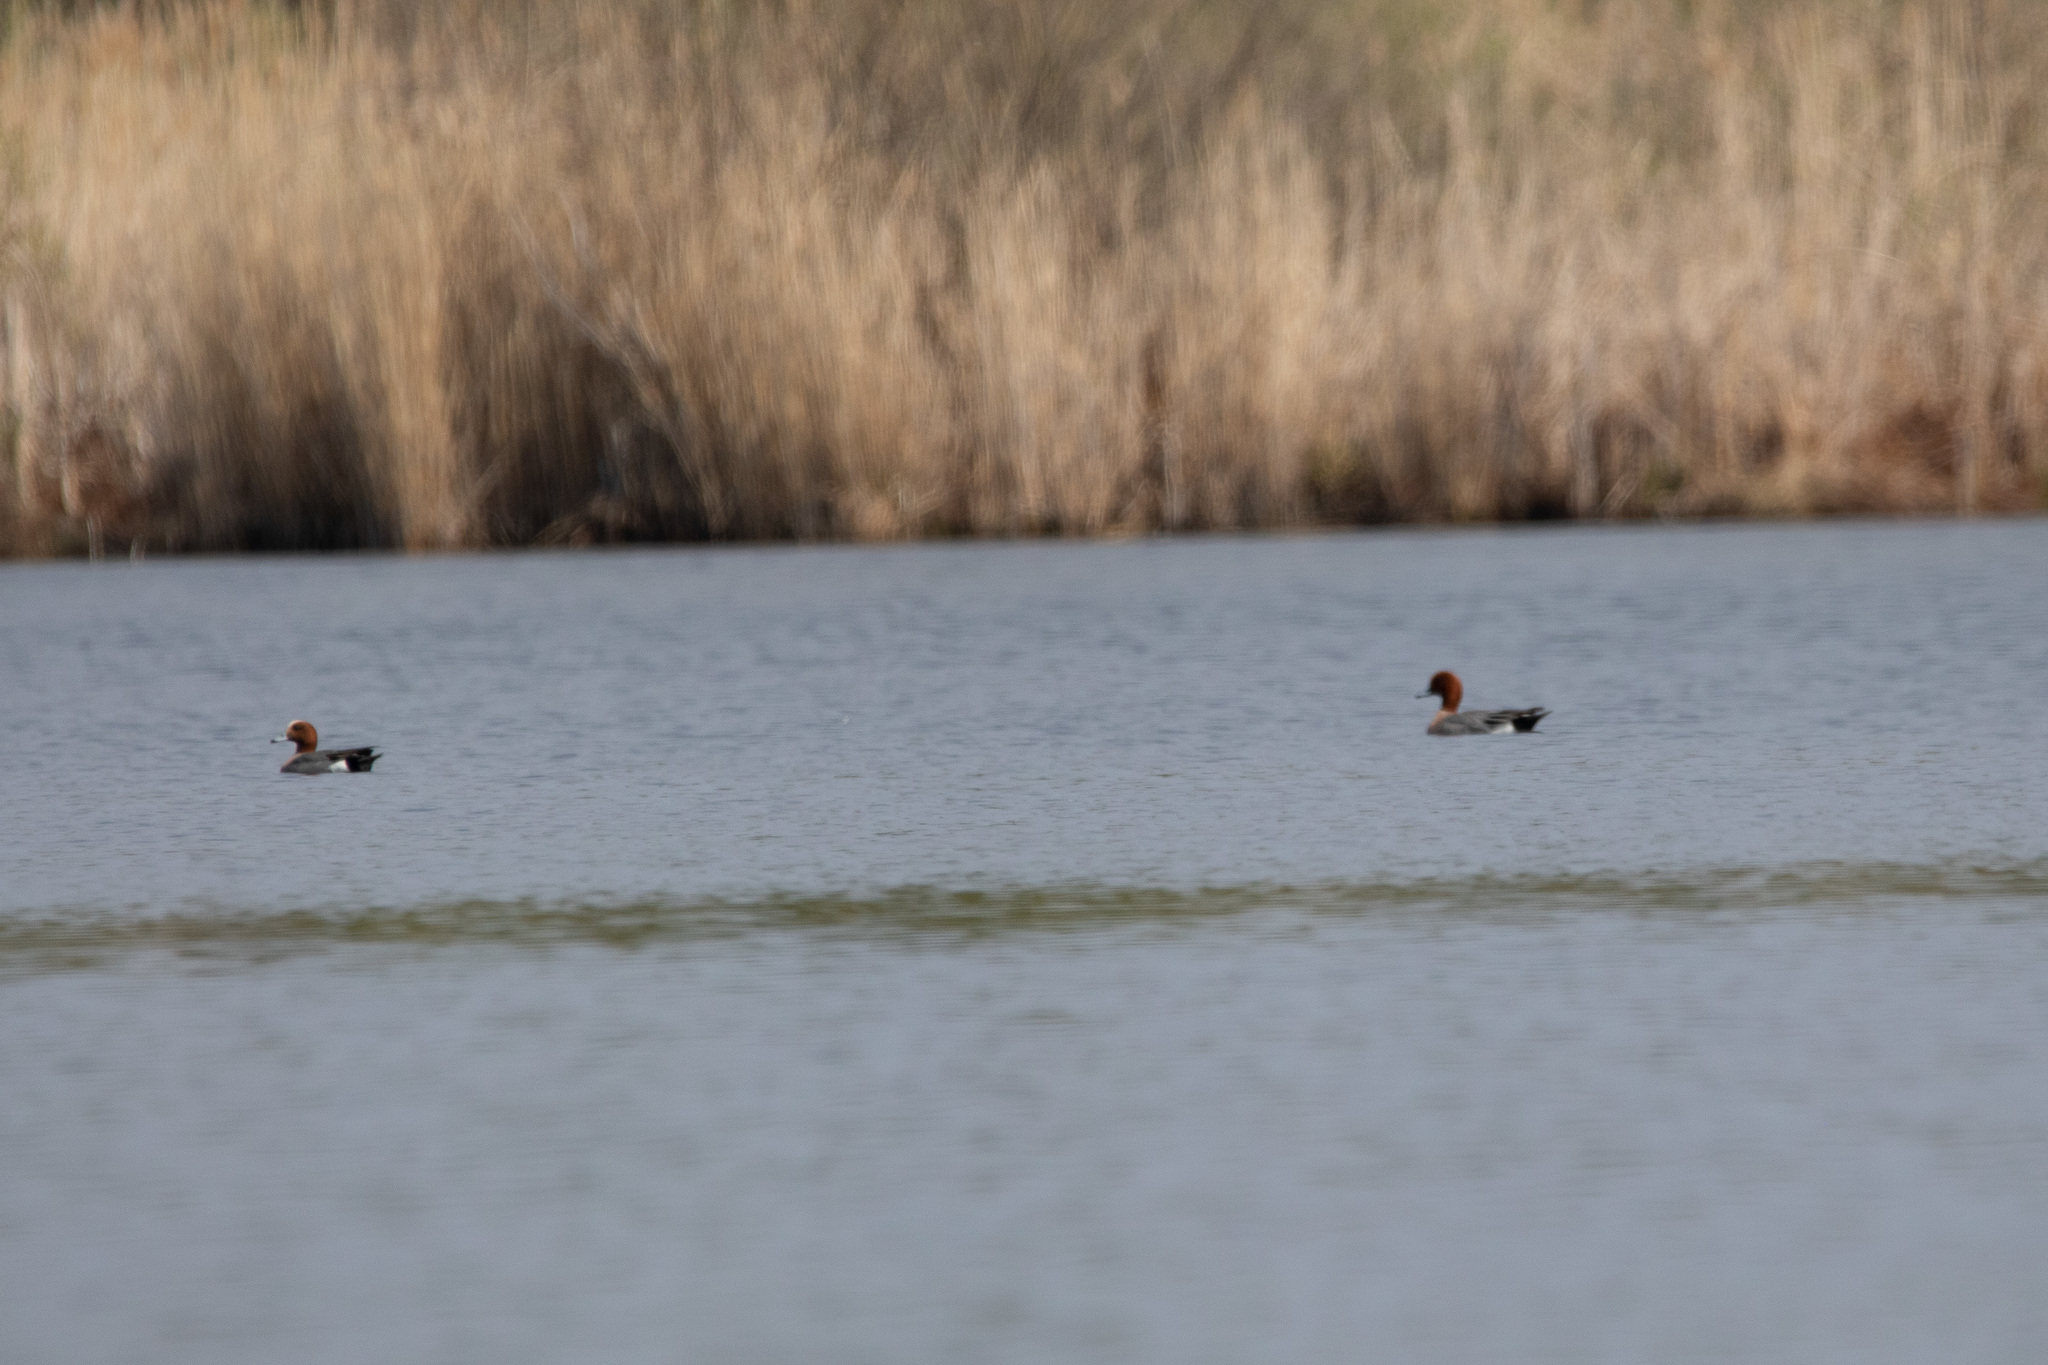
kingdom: Animalia
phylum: Chordata
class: Aves
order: Anseriformes
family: Anatidae
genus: Mareca
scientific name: Mareca penelope
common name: Eurasian wigeon
